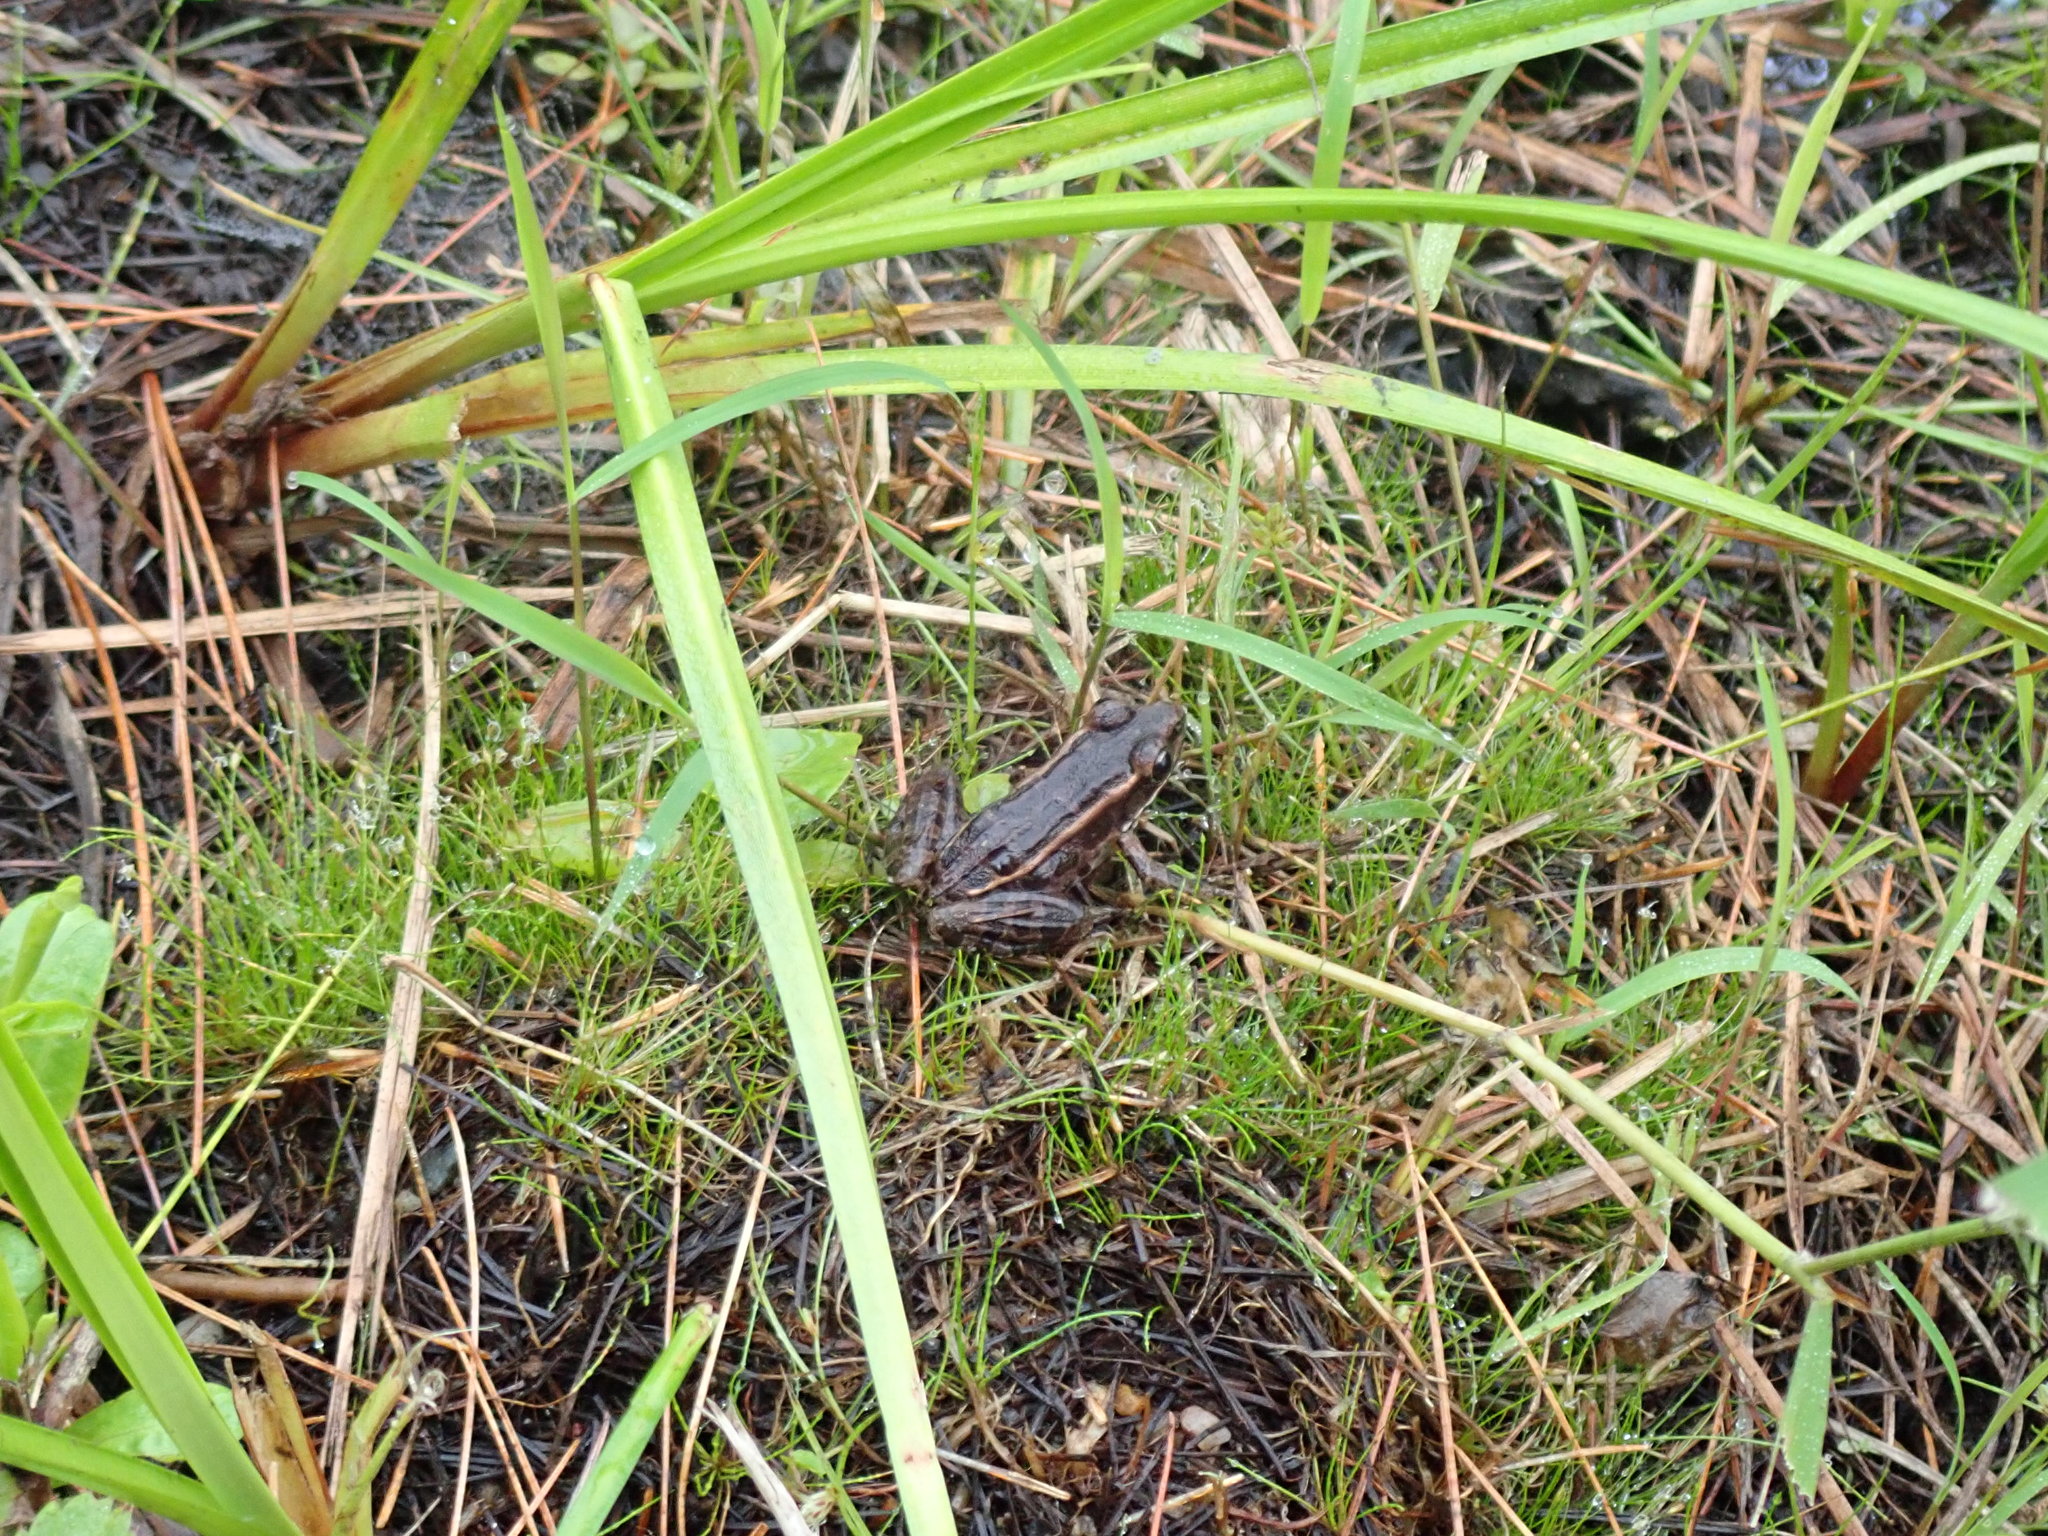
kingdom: Animalia
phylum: Chordata
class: Amphibia
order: Anura
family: Ranidae
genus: Lithobates
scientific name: Lithobates palustris
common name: Pickerel frog
